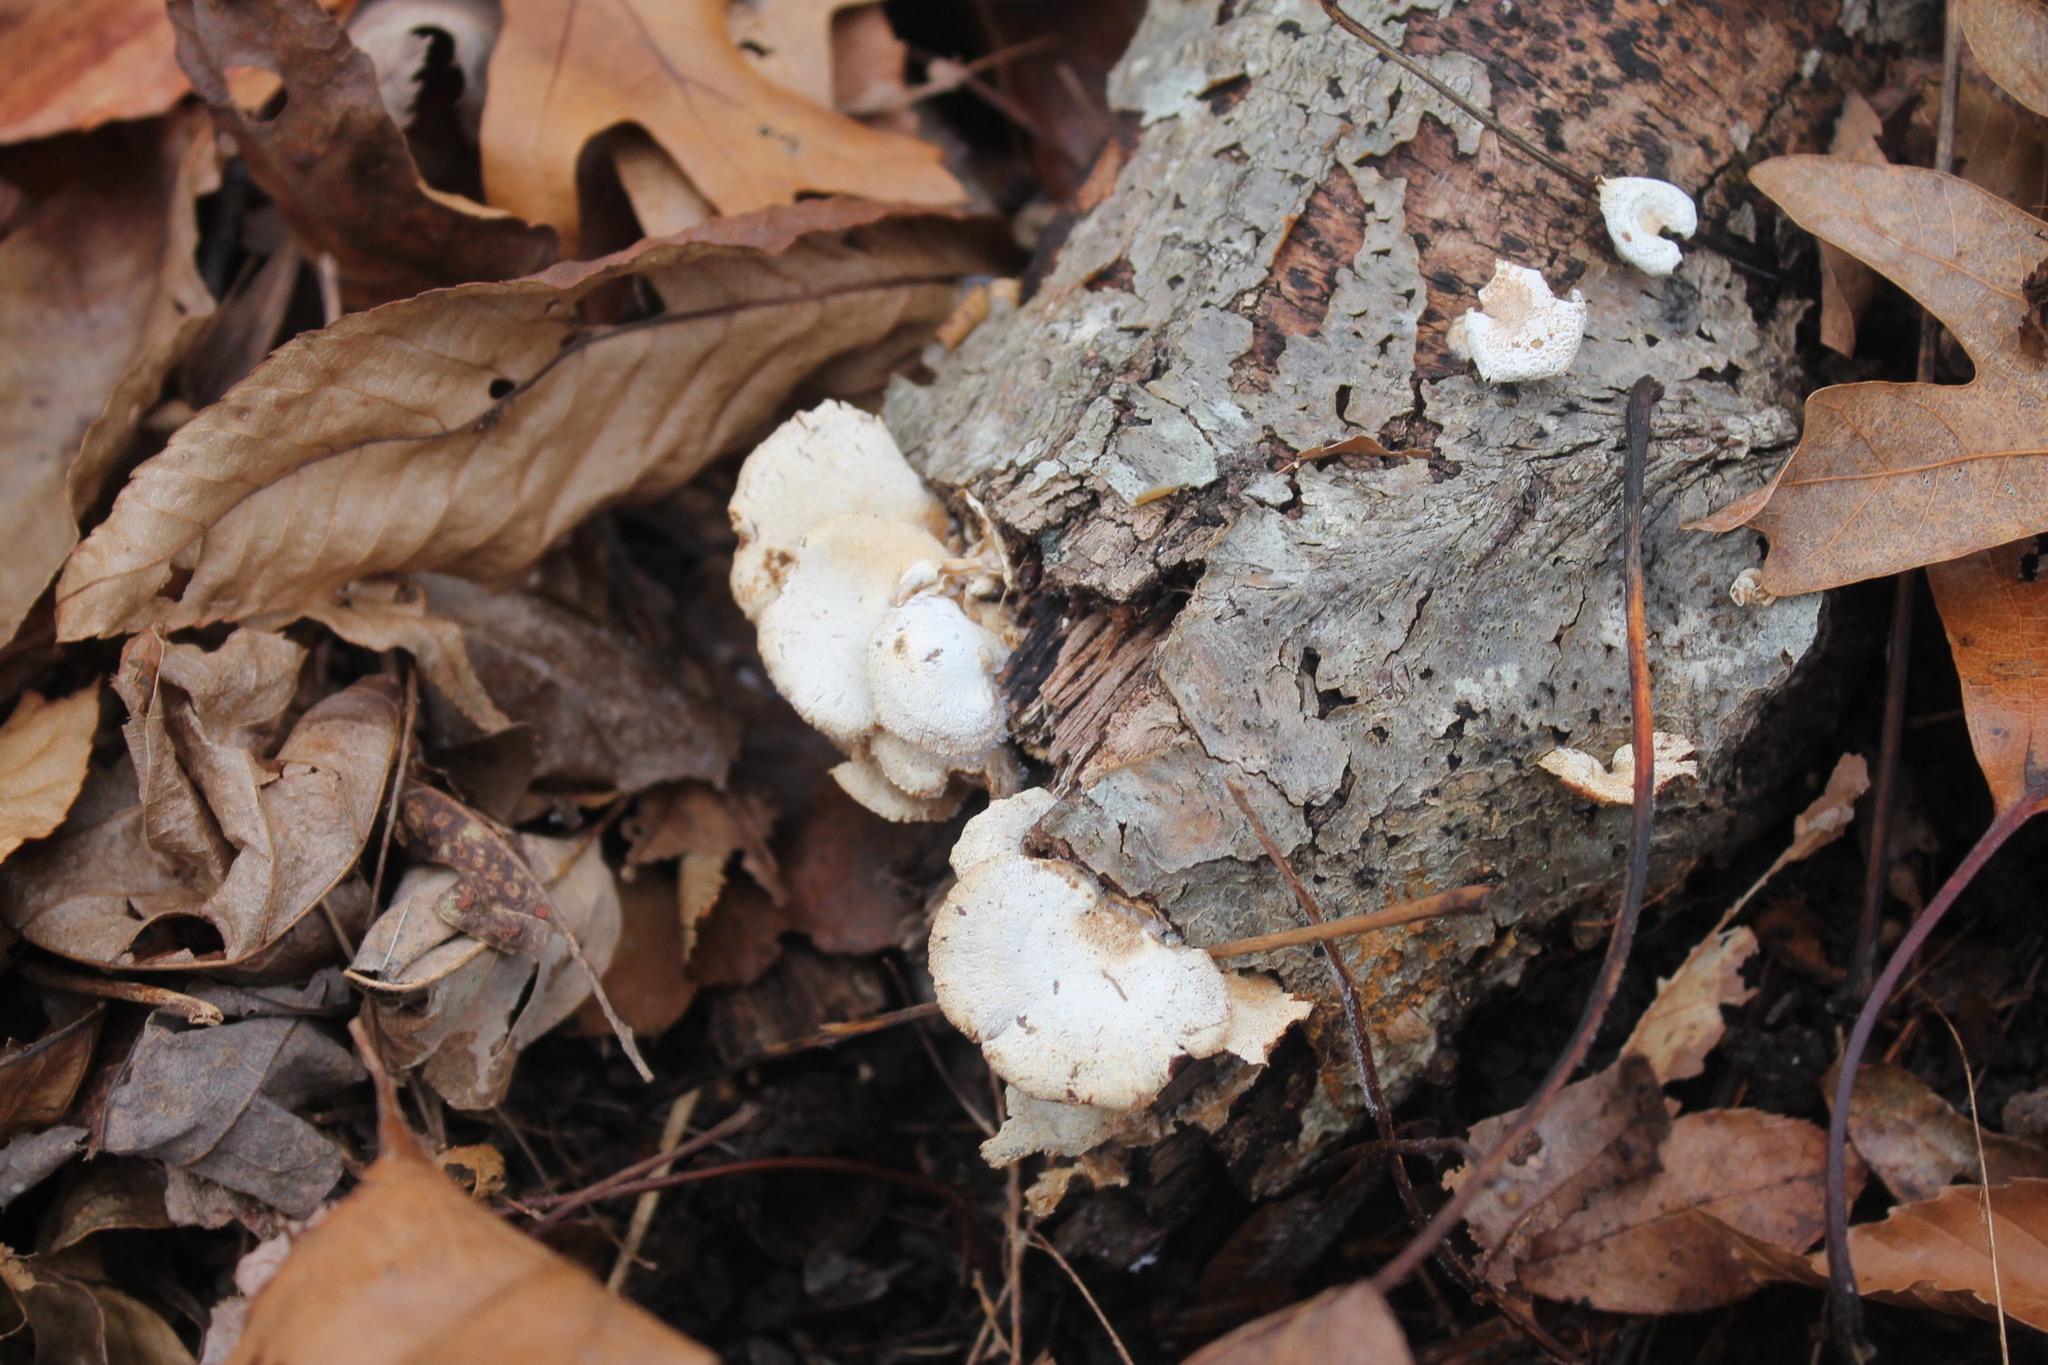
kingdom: Fungi
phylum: Basidiomycota
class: Agaricomycetes
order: Agaricales
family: Mycenaceae
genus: Panellus
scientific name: Panellus stipticus
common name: Bitter oysterling
